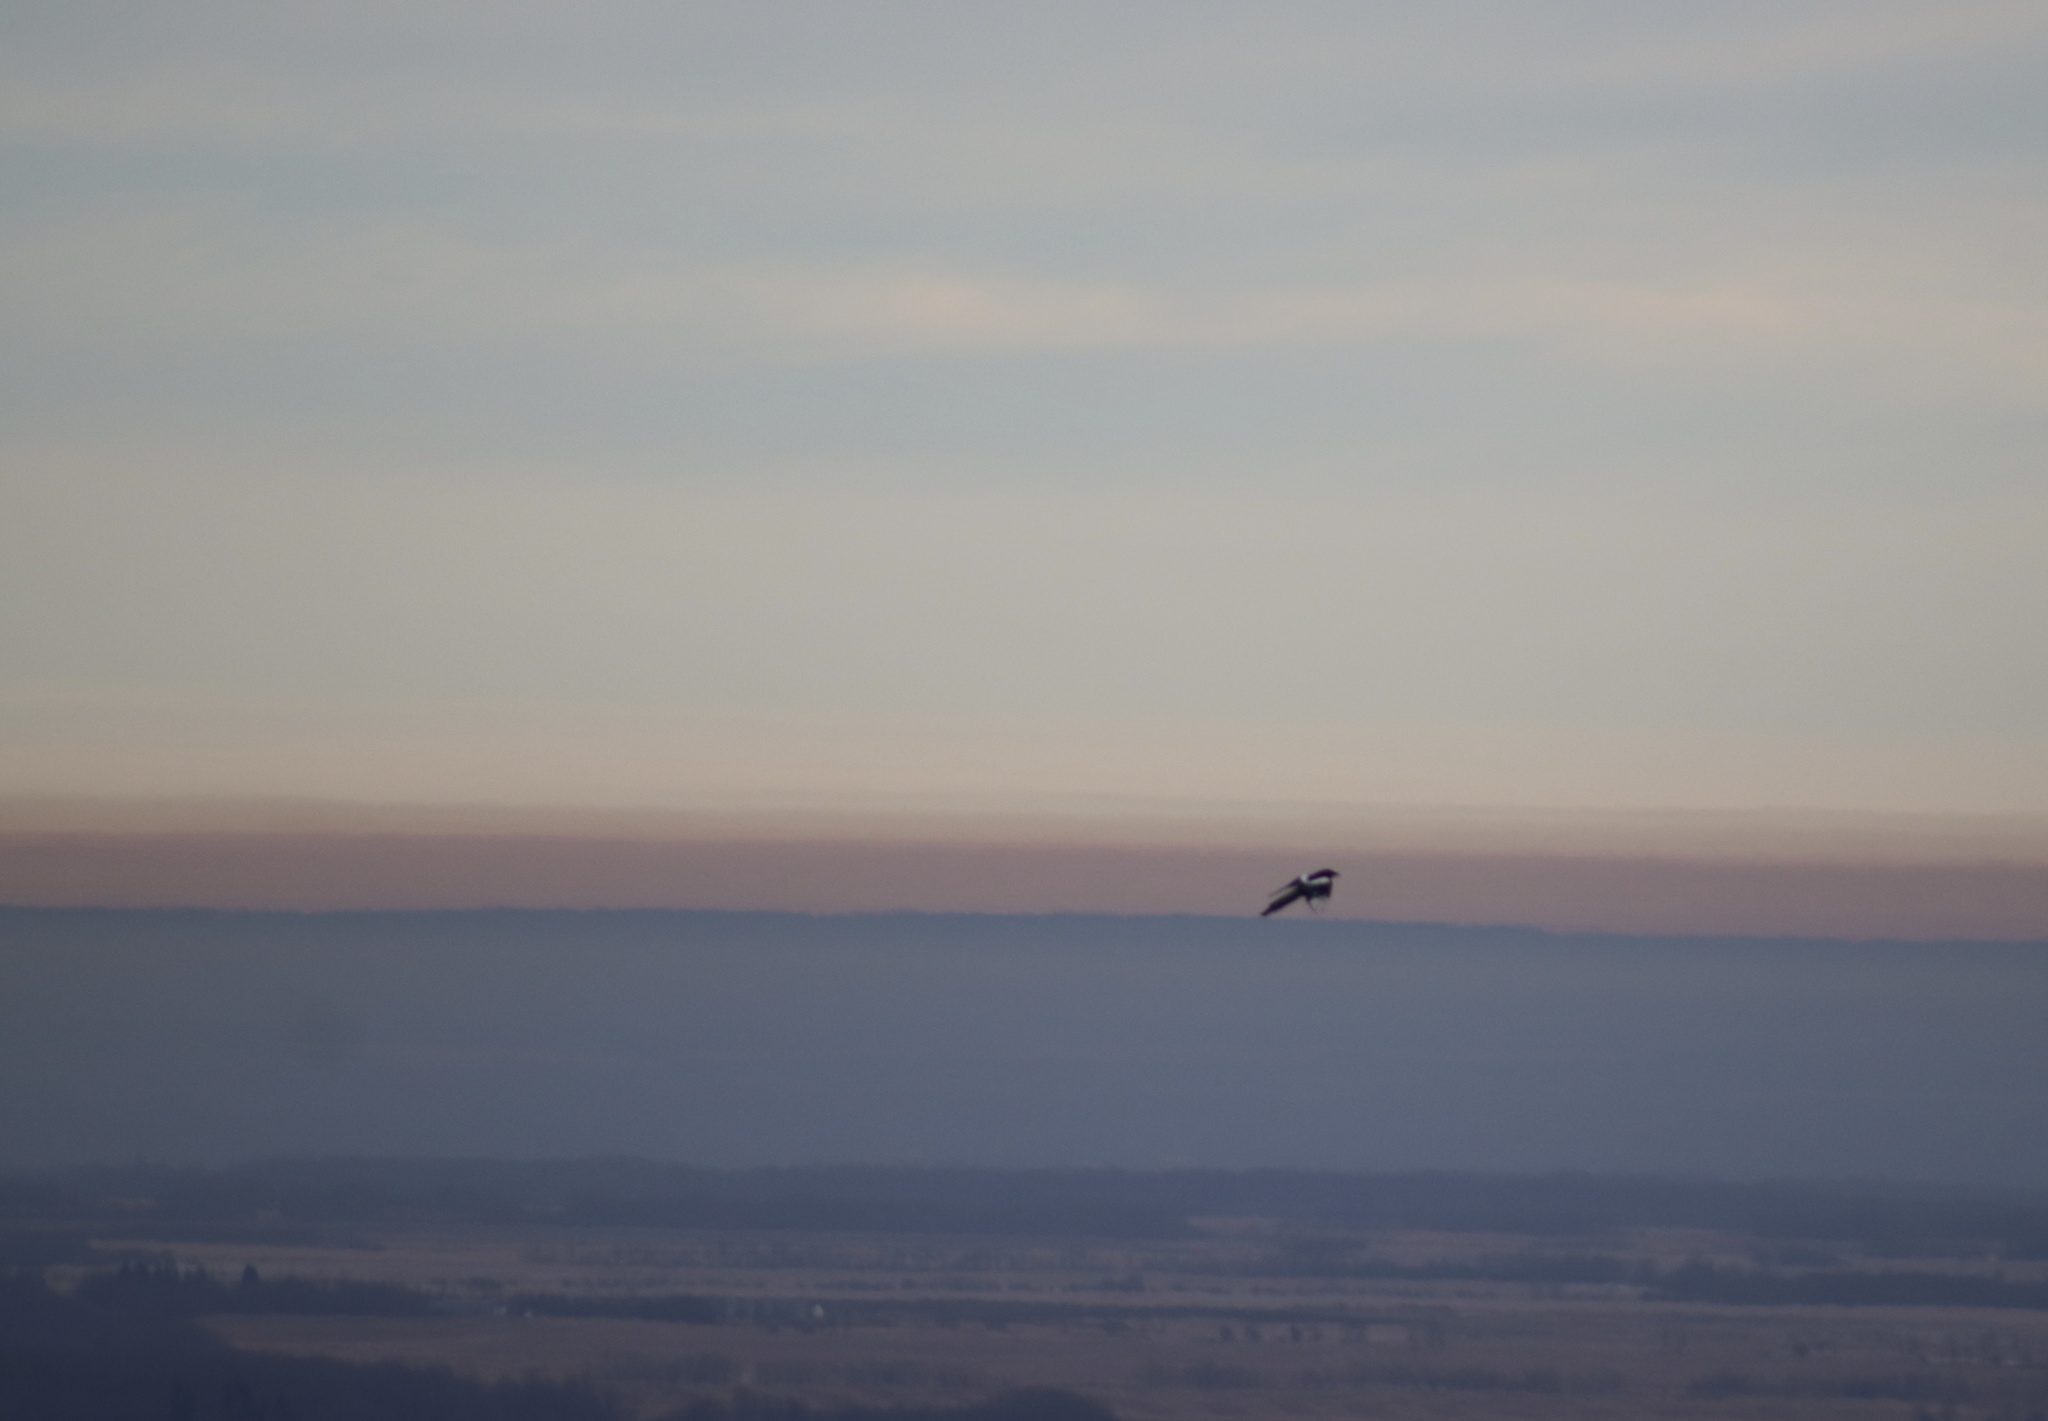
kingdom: Animalia
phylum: Chordata
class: Aves
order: Passeriformes
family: Corvidae
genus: Pica
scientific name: Pica hudsonia
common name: Black-billed magpie
